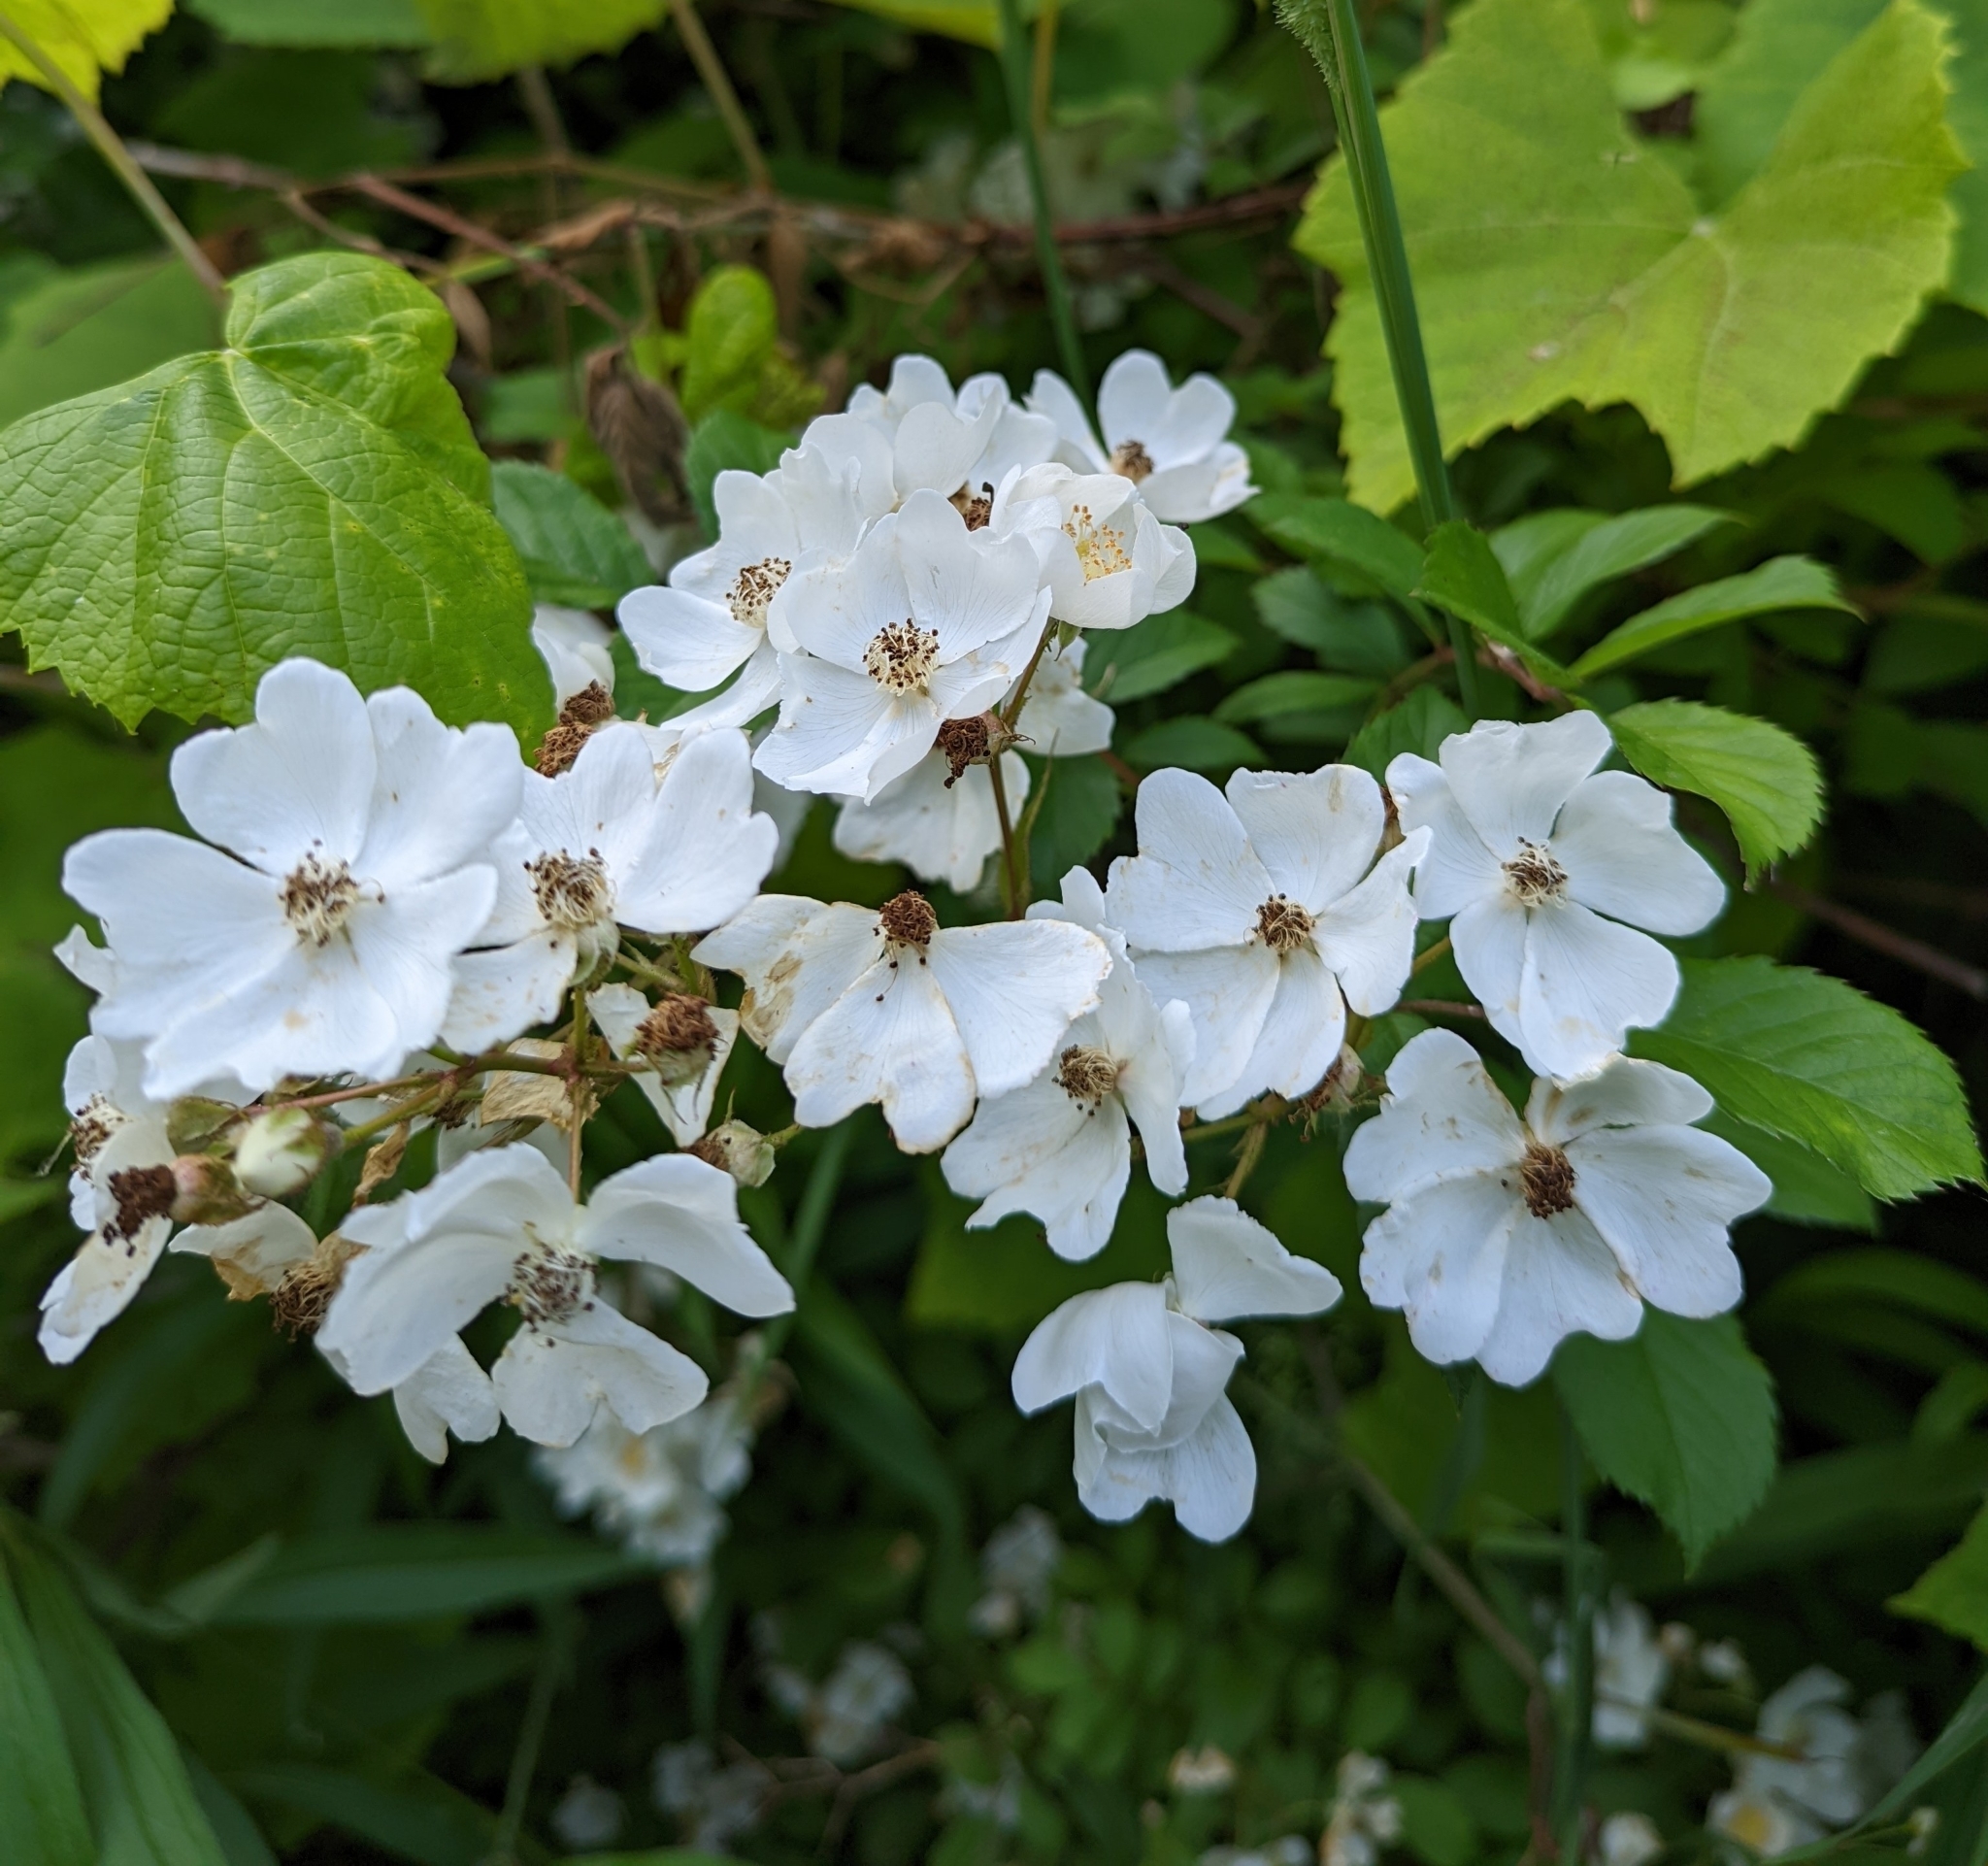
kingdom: Plantae
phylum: Tracheophyta
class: Magnoliopsida
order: Rosales
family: Rosaceae
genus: Rosa
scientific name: Rosa multiflora
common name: Multiflora rose
